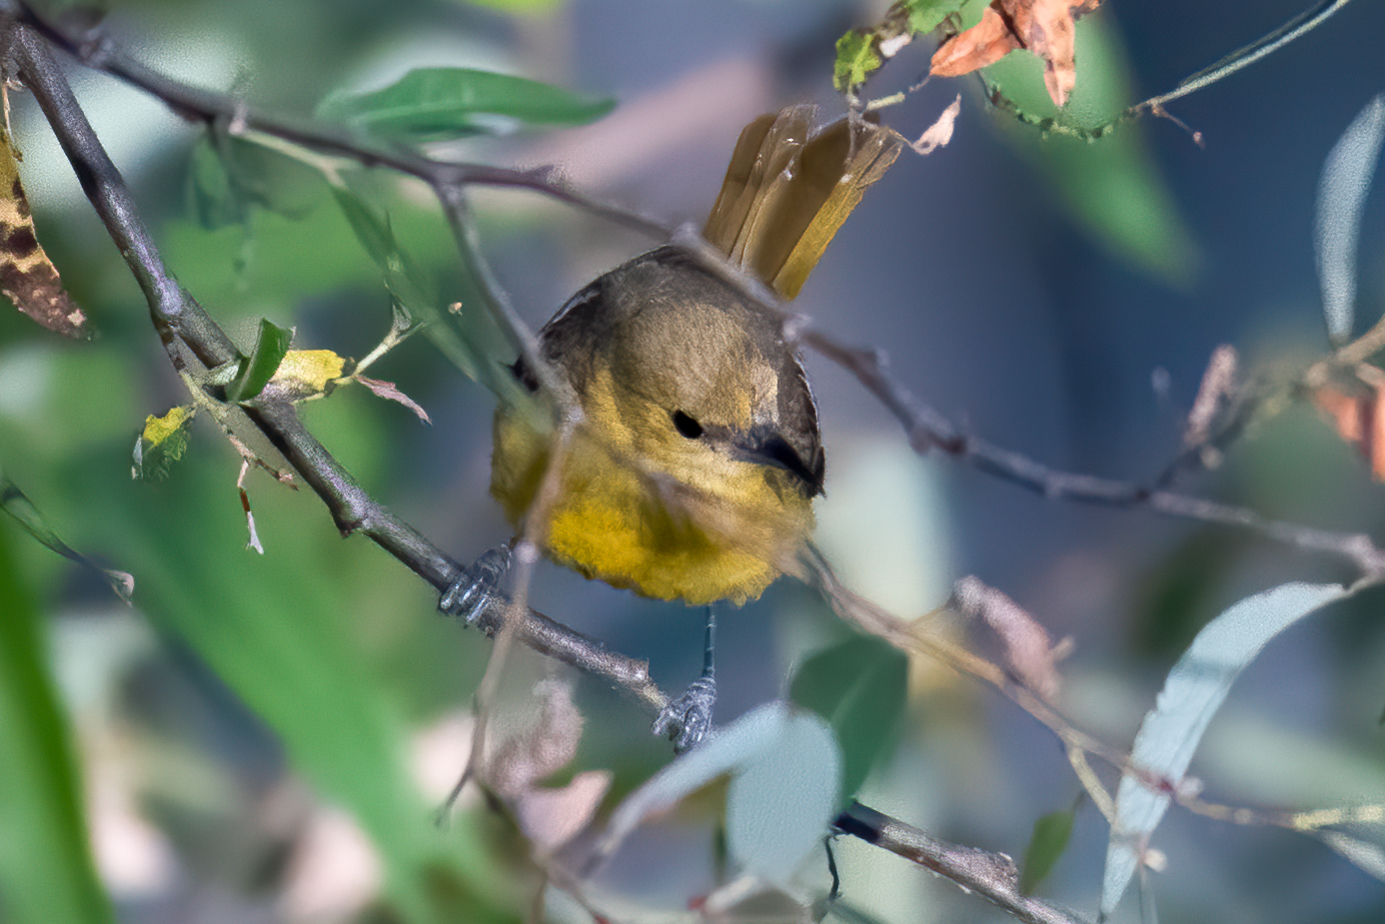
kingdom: Animalia
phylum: Chordata
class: Aves
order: Passeriformes
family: Icteridae
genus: Icterus
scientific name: Icterus cucullatus
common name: Hooded oriole
